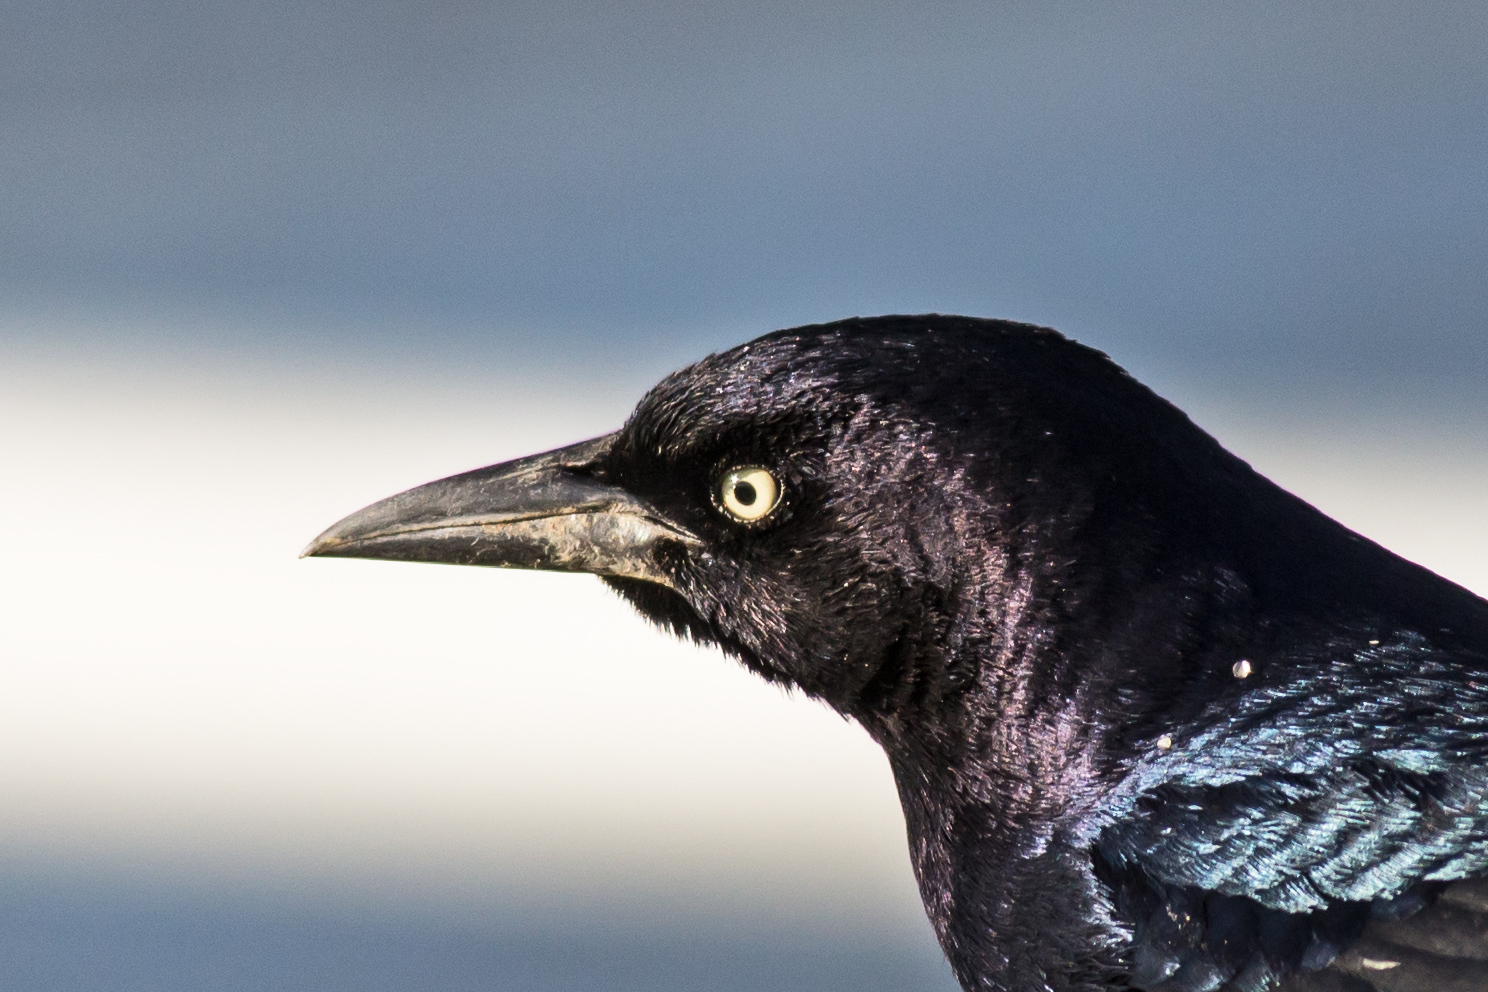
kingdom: Animalia
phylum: Chordata
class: Aves
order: Passeriformes
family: Icteridae
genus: Quiscalus
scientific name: Quiscalus major
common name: Boat-tailed grackle
